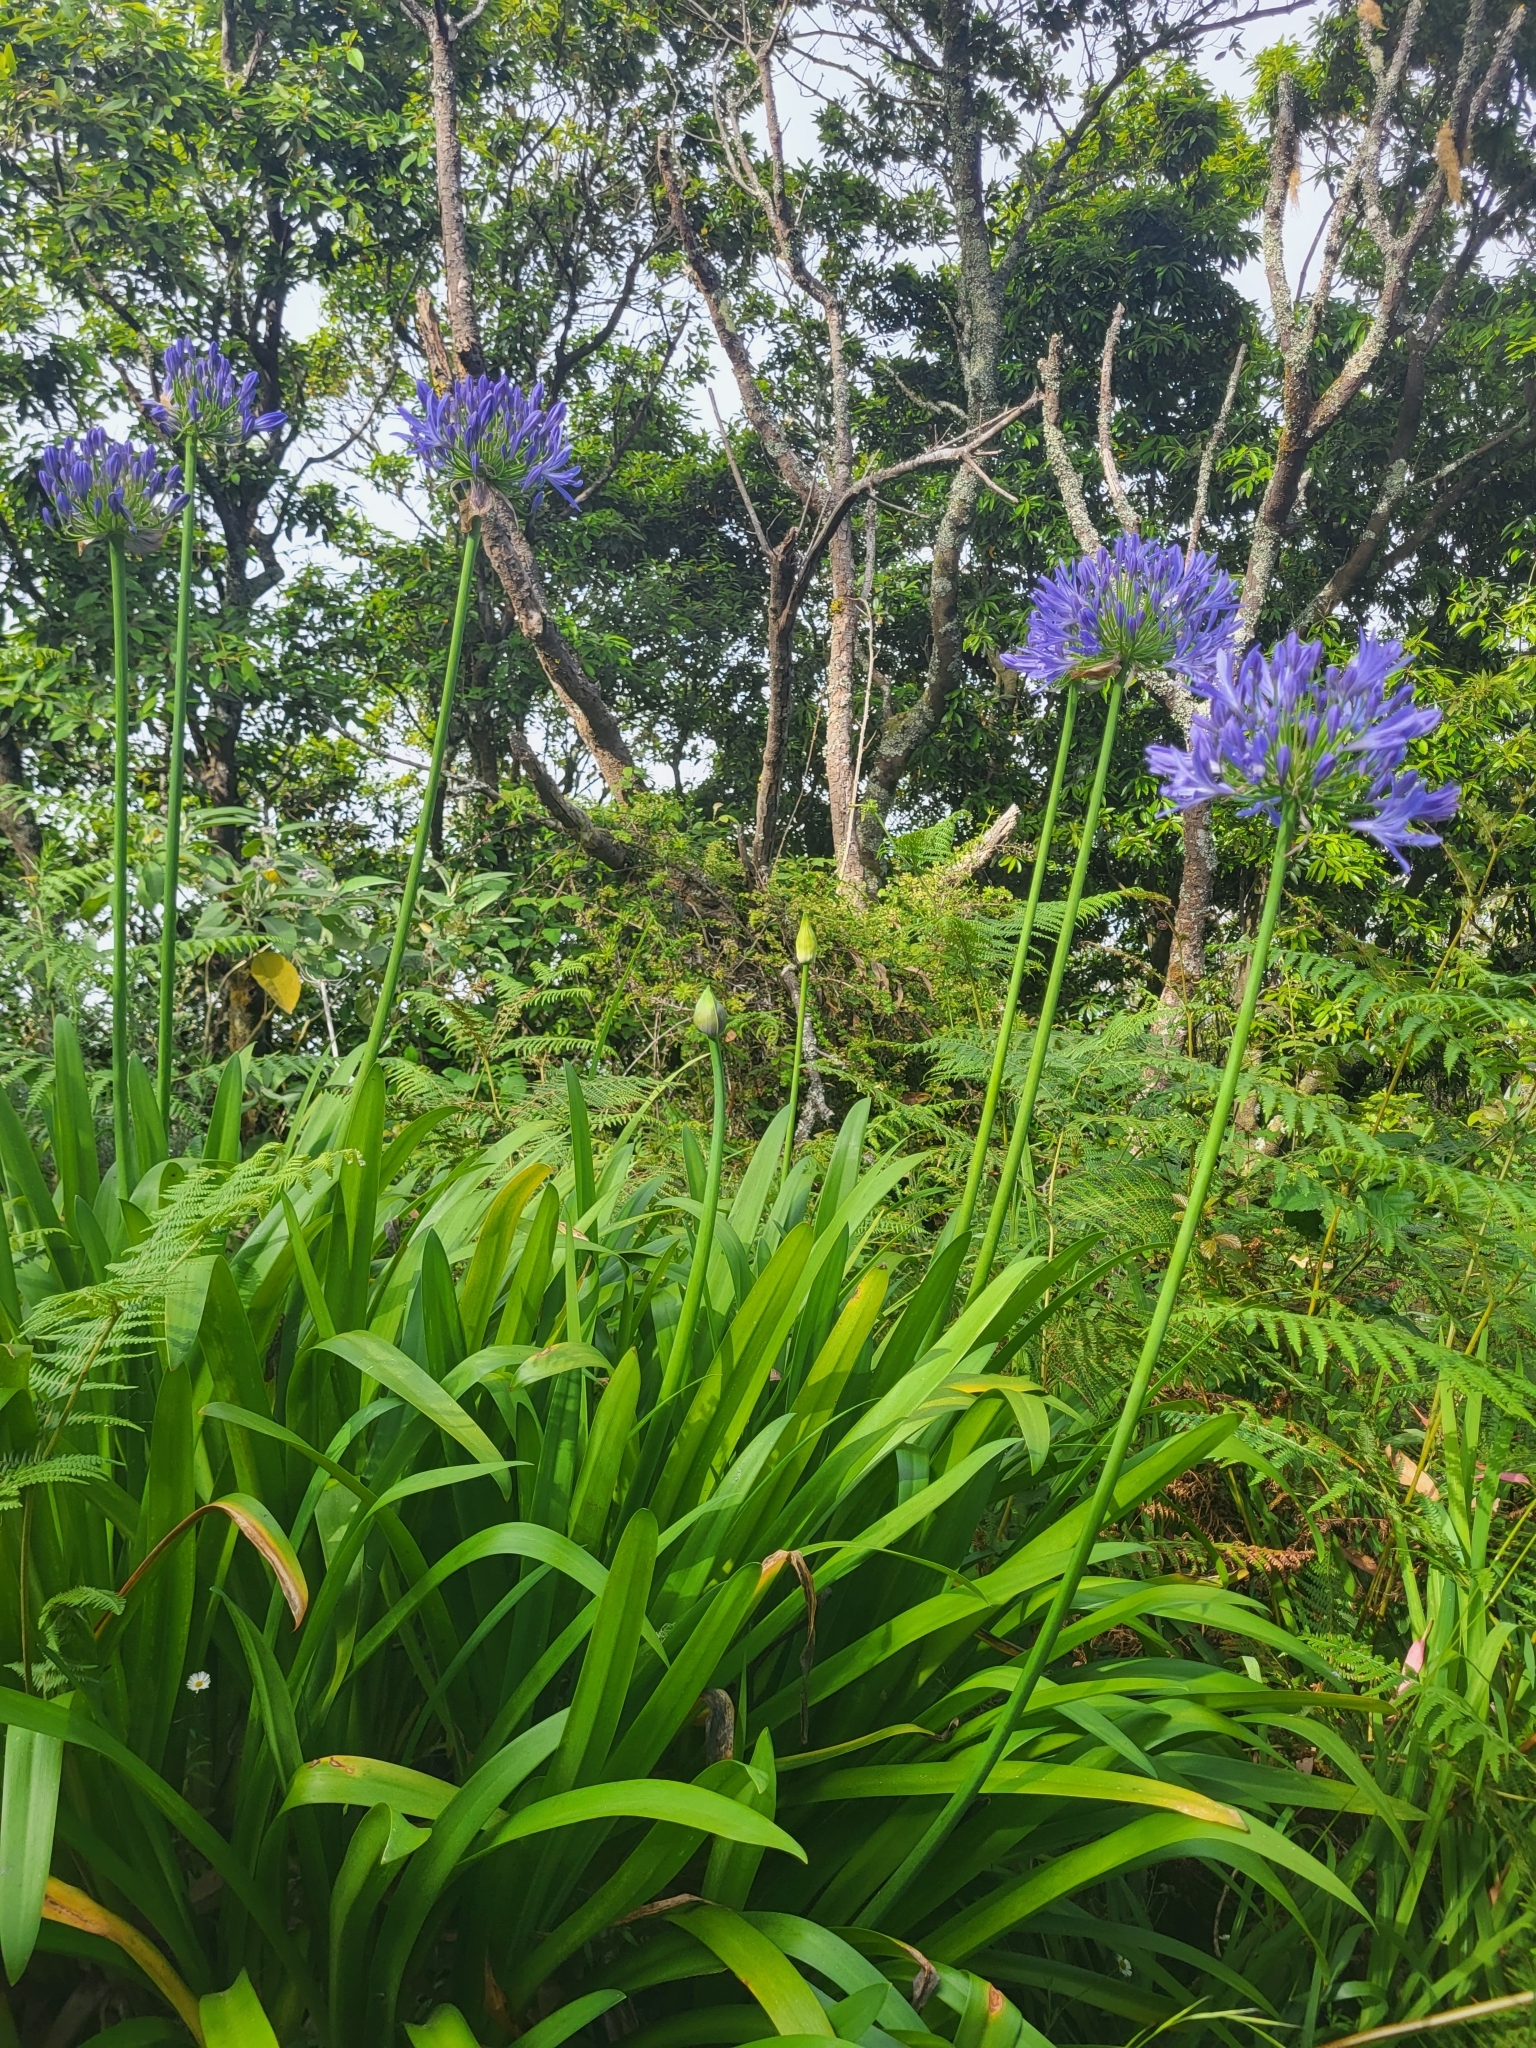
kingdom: Plantae
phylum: Tracheophyta
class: Liliopsida
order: Asparagales
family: Amaryllidaceae
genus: Agapanthus
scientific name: Agapanthus praecox
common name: African-lily
